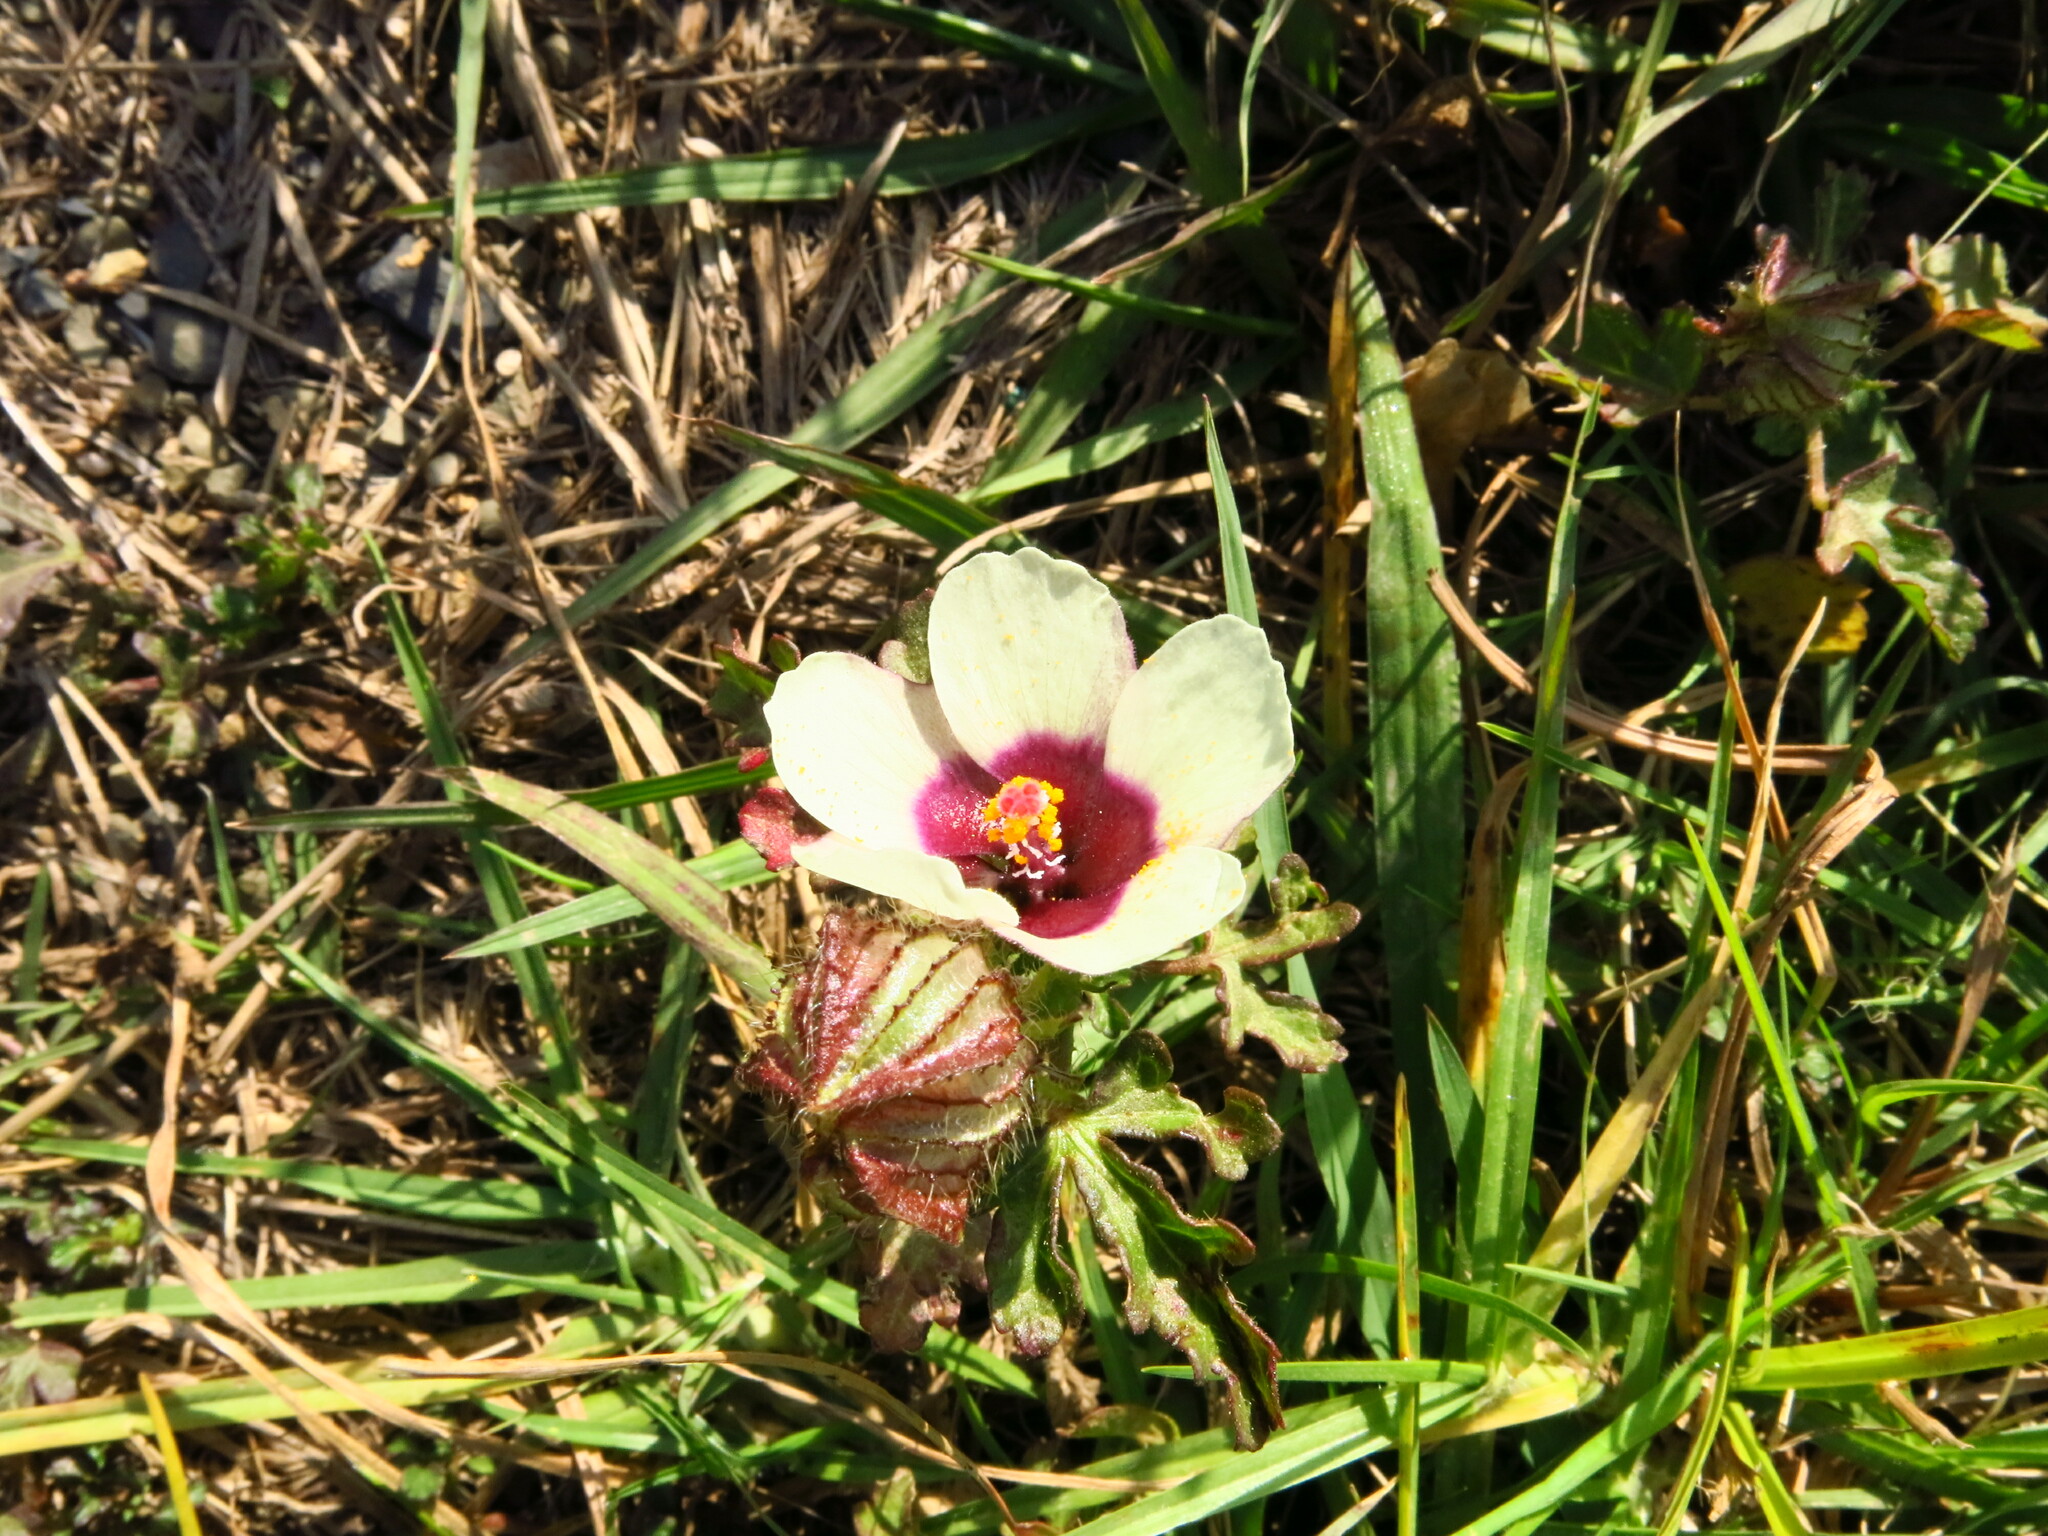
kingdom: Plantae
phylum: Tracheophyta
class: Magnoliopsida
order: Malvales
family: Malvaceae
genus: Hibiscus
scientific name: Hibiscus trionum
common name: Bladder ketmia
